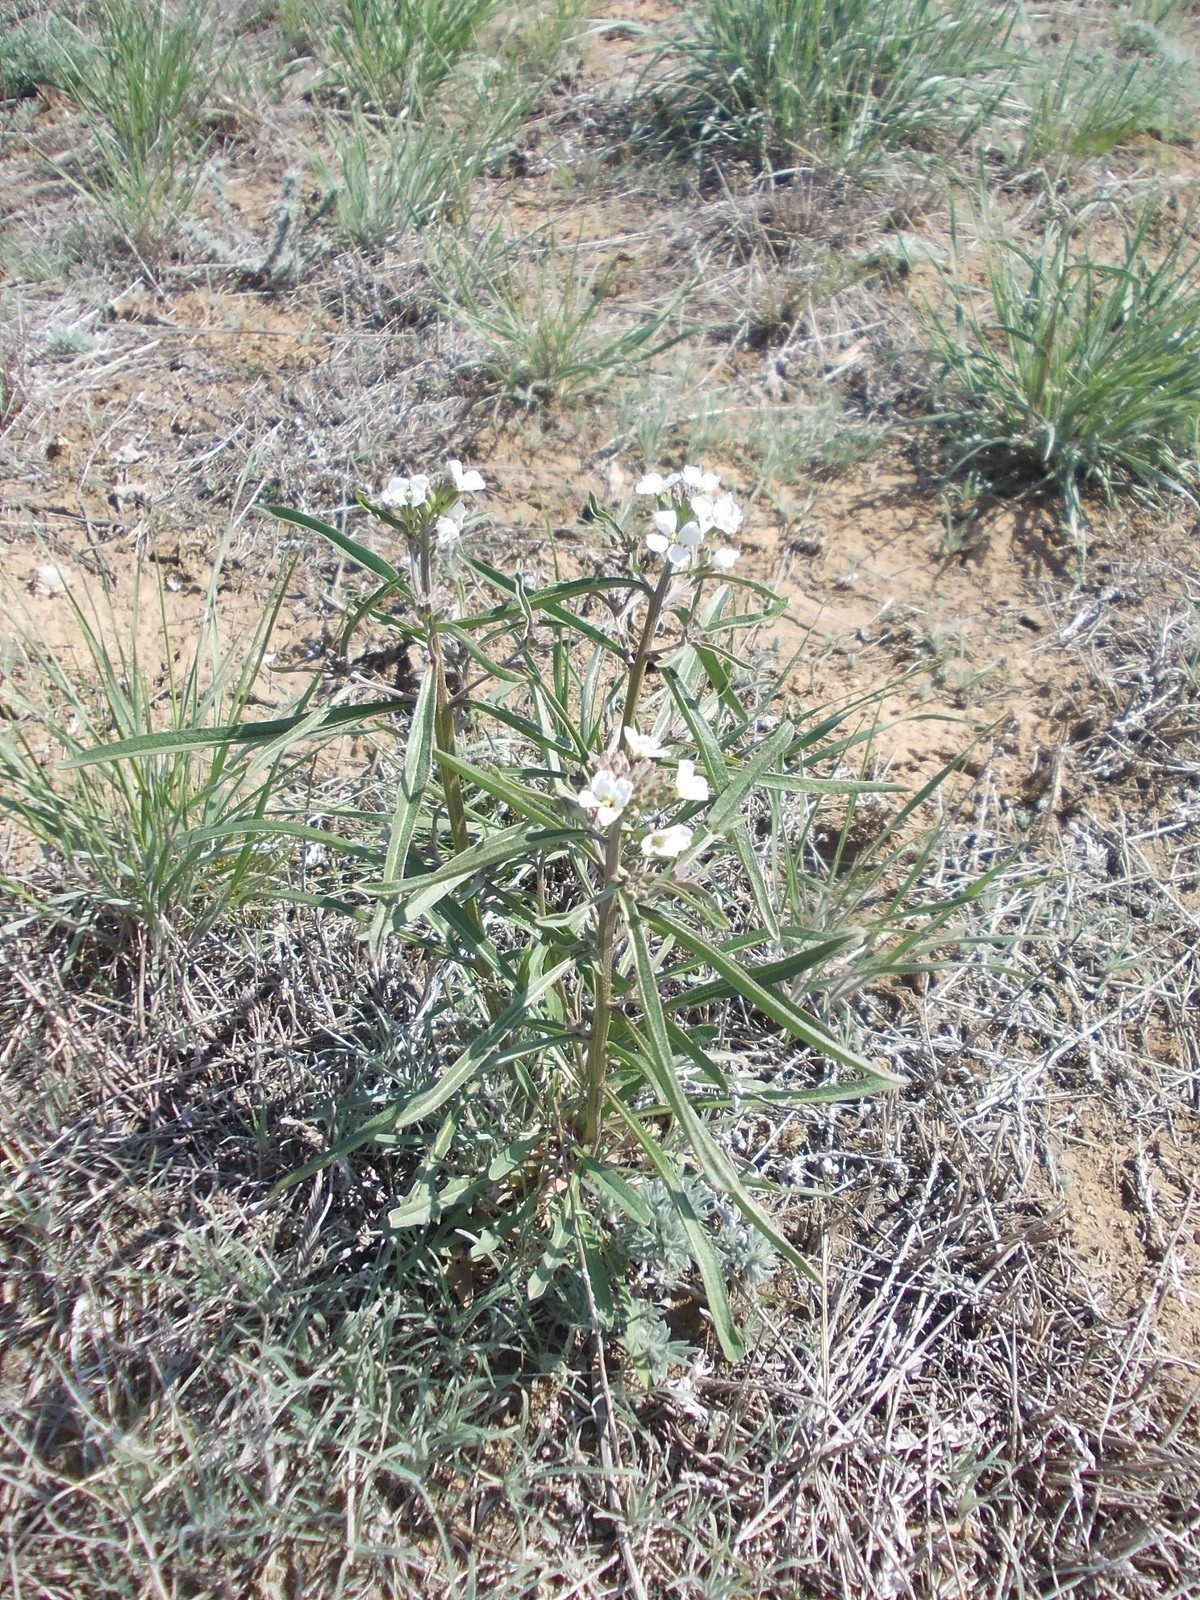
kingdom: Plantae
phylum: Tracheophyta
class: Magnoliopsida
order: Brassicales
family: Brassicaceae
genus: Erysimum
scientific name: Erysimum leucanthemum
